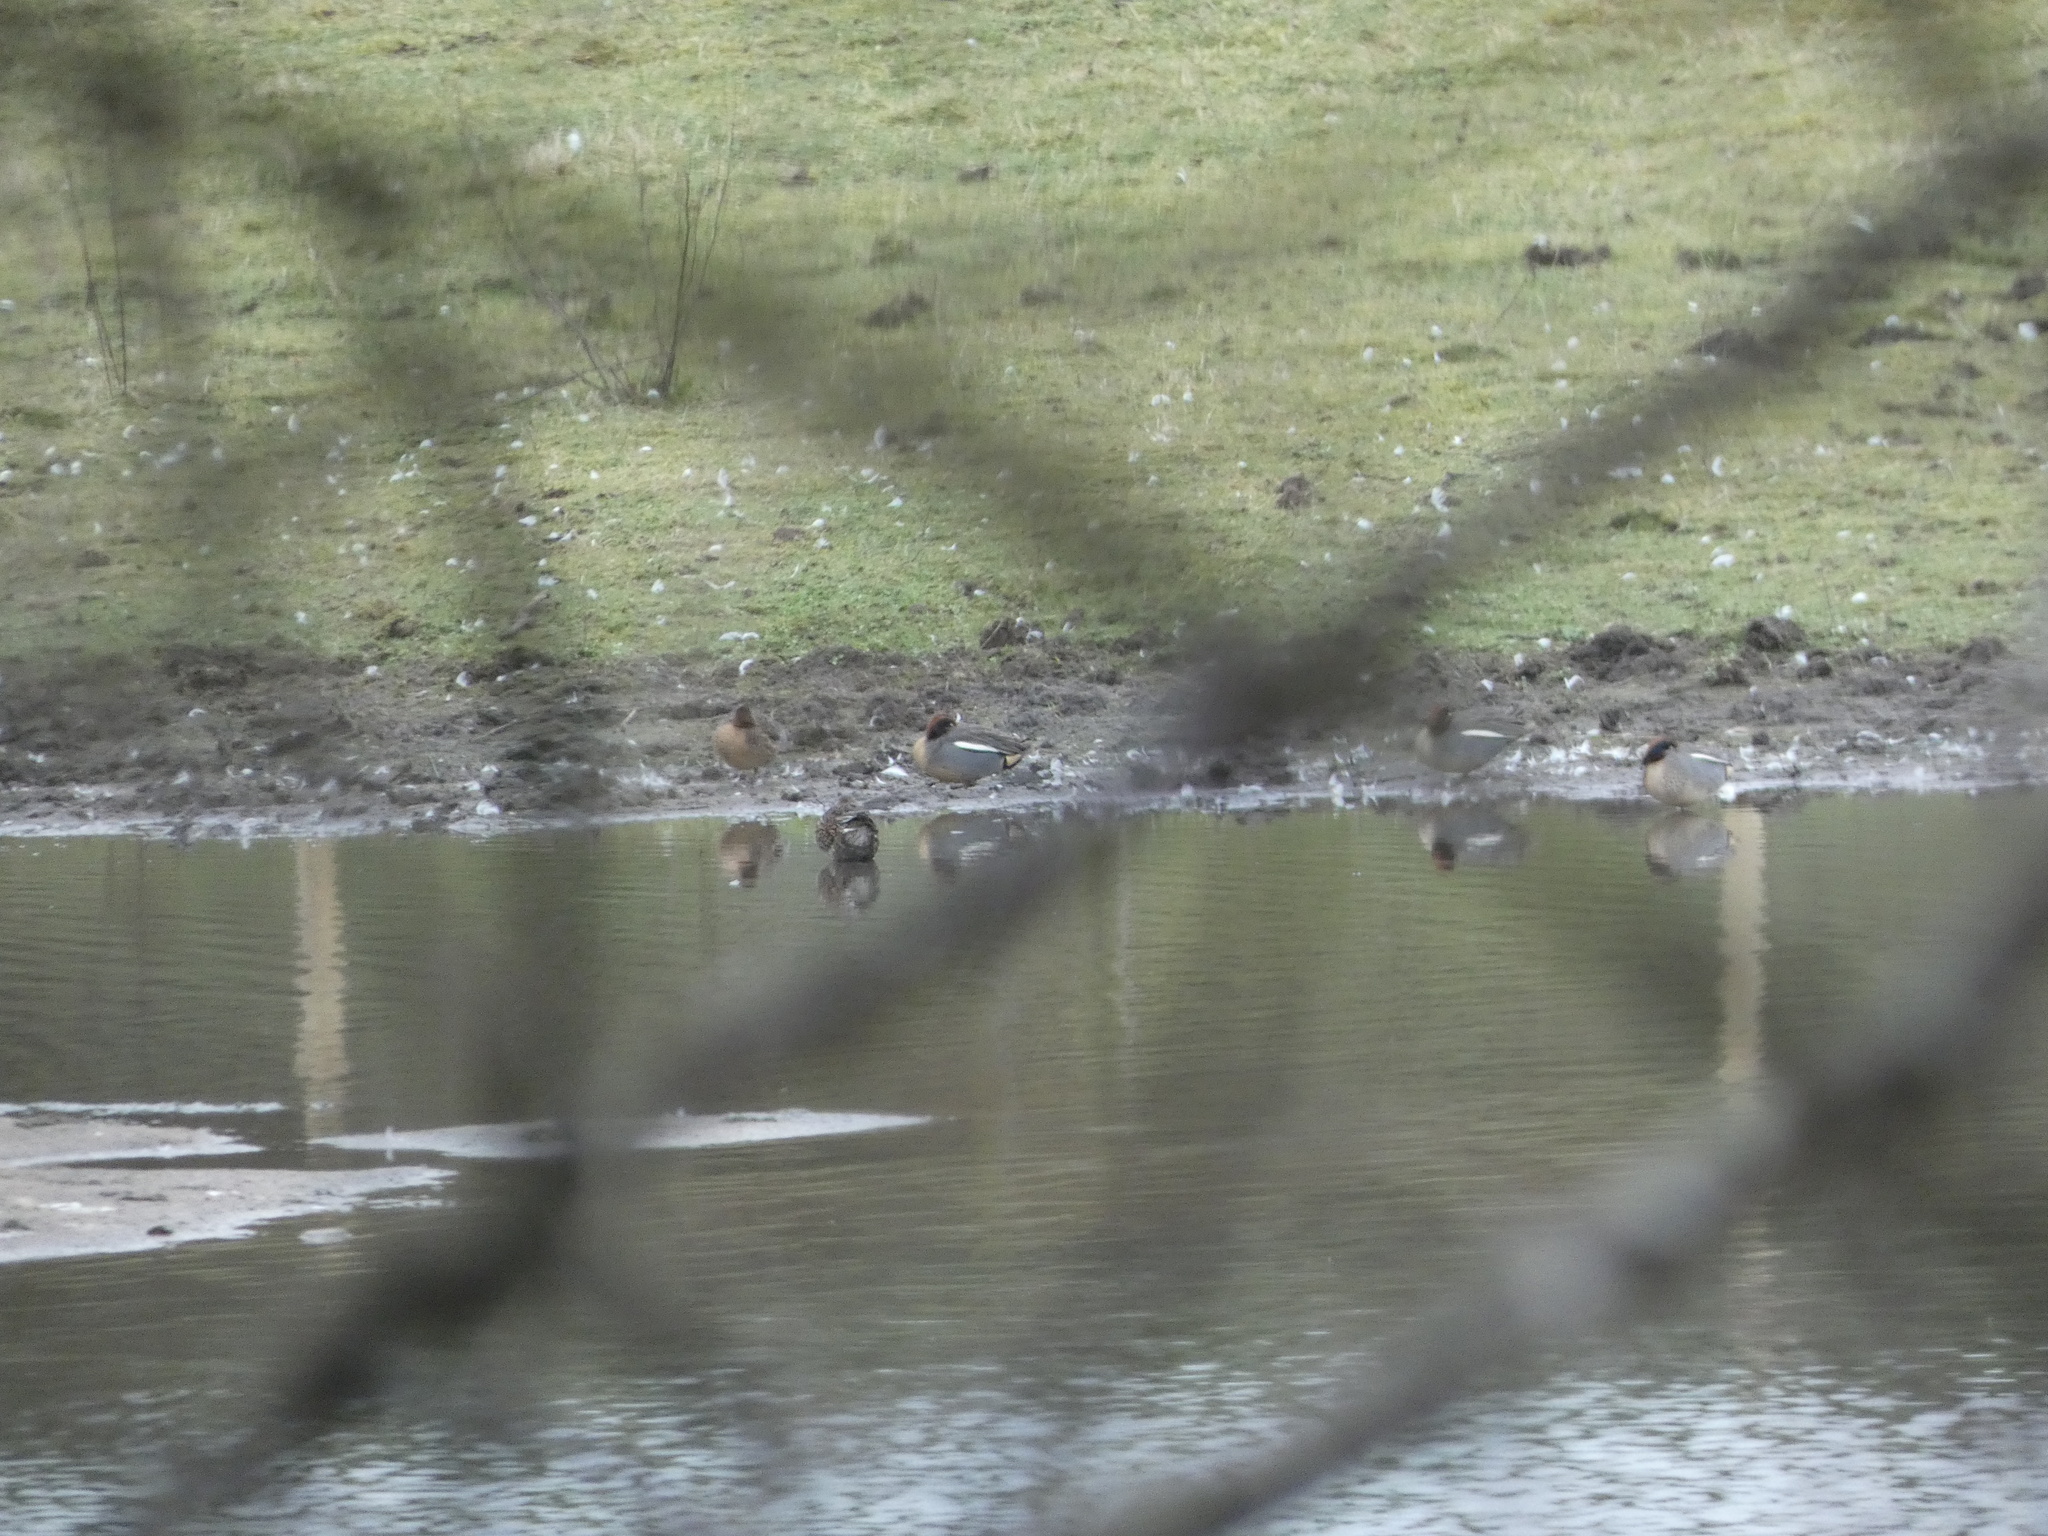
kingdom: Animalia
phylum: Chordata
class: Aves
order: Anseriformes
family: Anatidae
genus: Anas
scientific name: Anas crecca
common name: Eurasian teal
